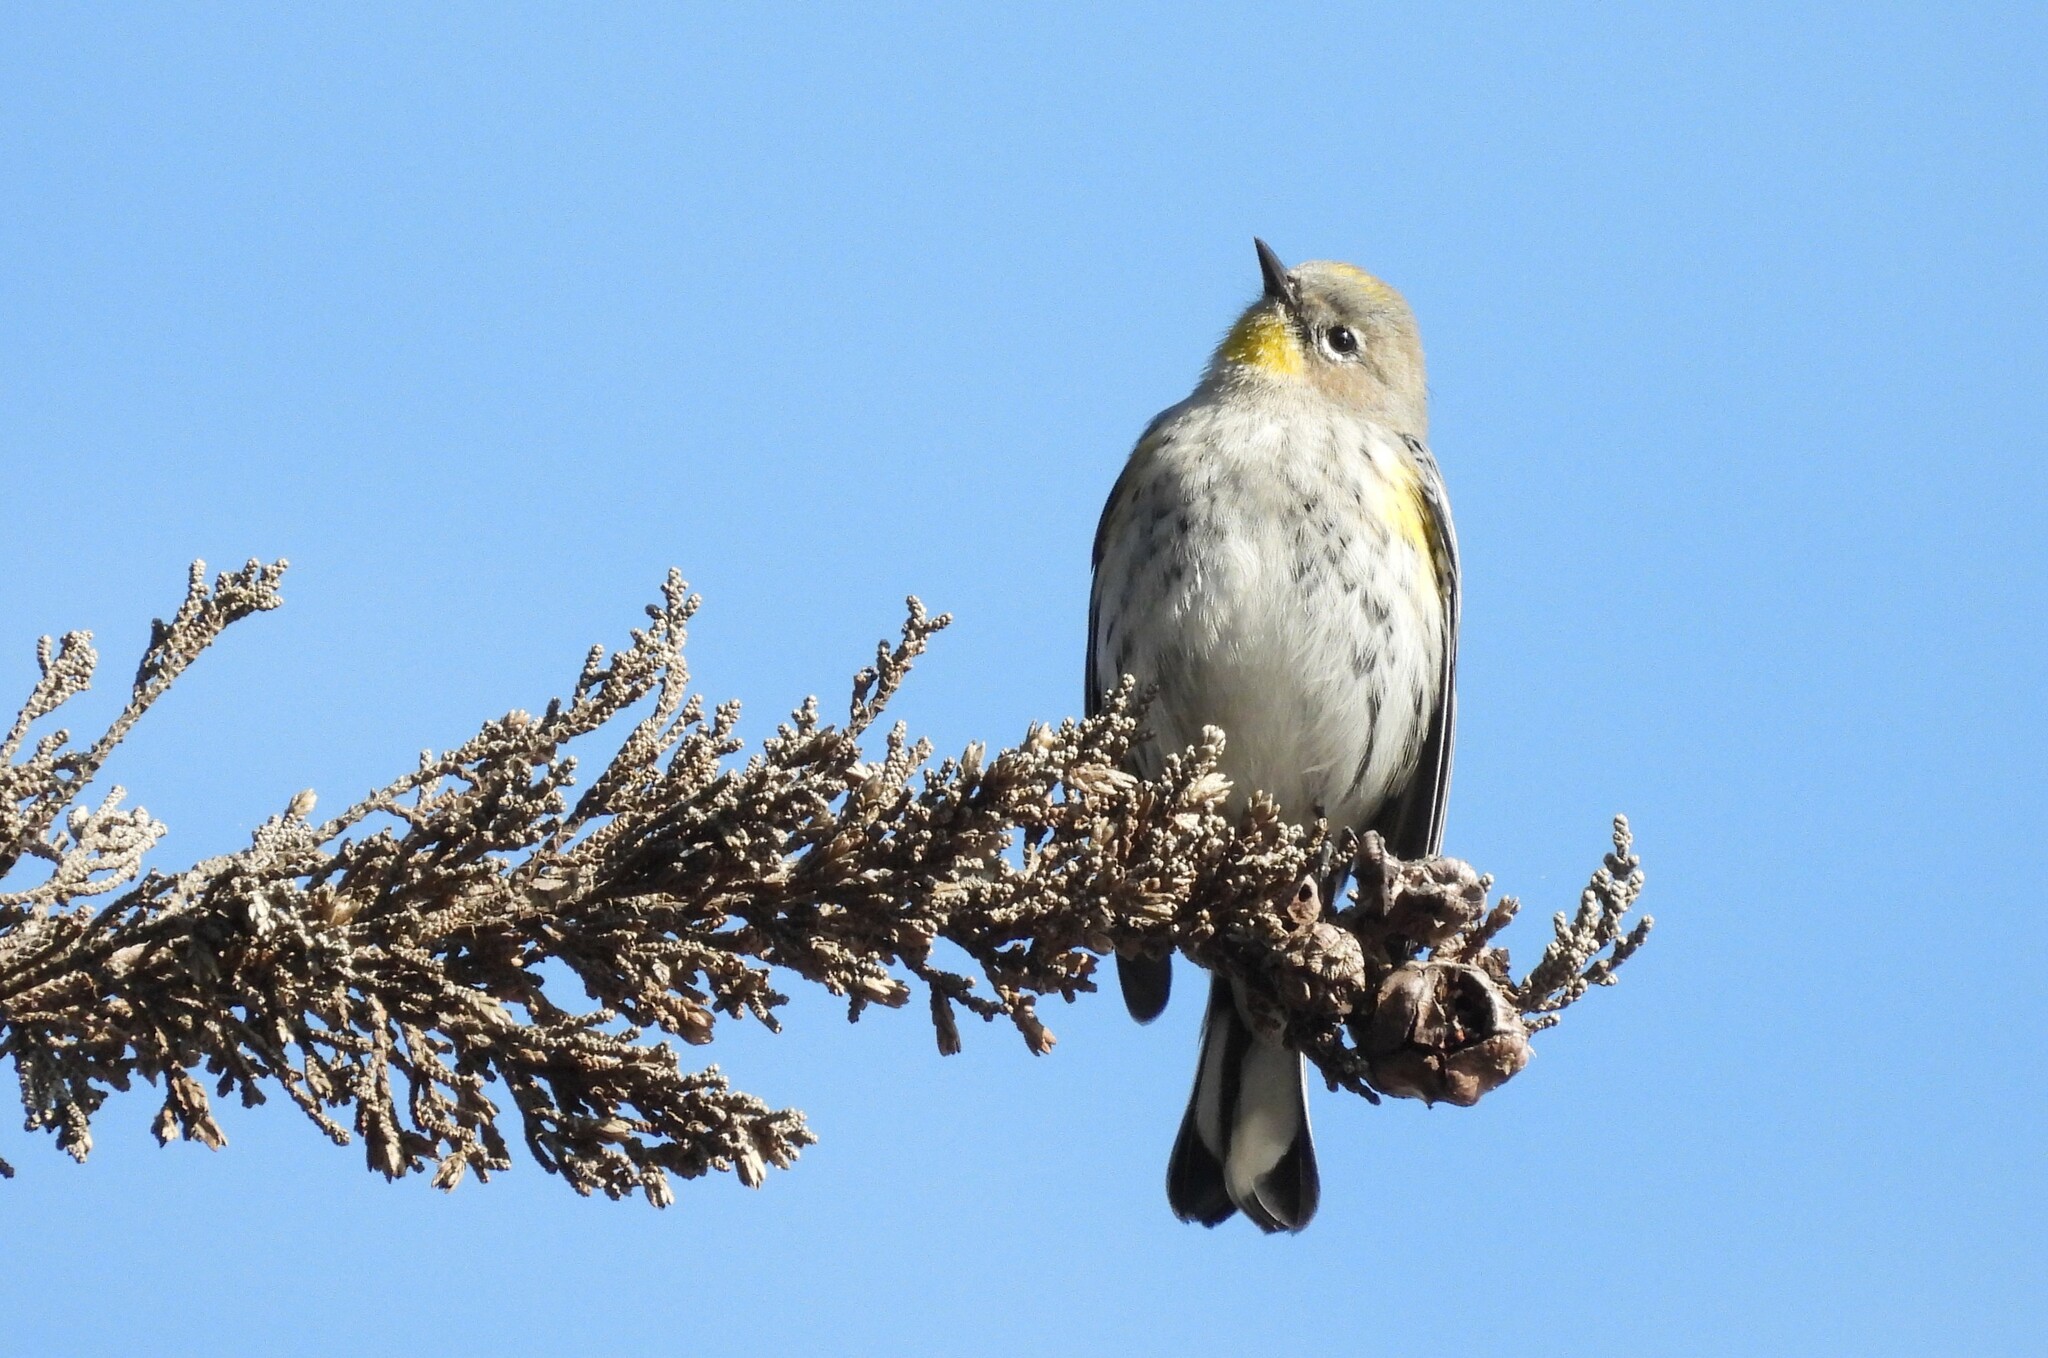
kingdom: Animalia
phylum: Chordata
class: Aves
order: Passeriformes
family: Parulidae
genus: Setophaga
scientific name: Setophaga coronata
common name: Myrtle warbler
